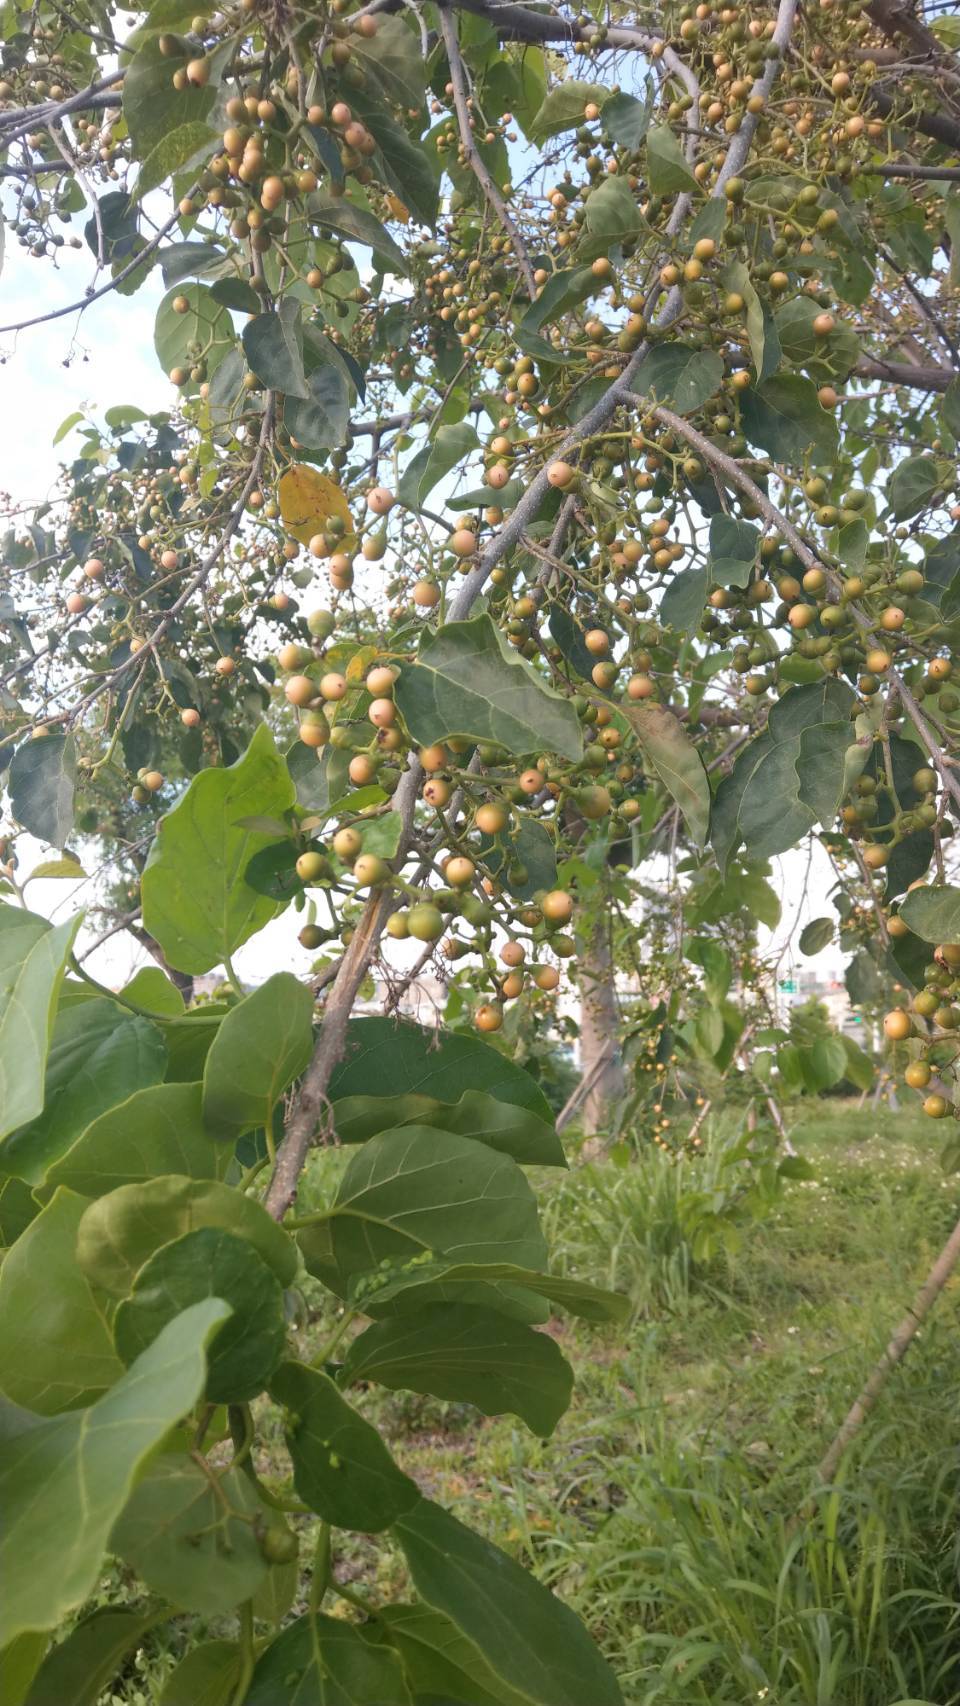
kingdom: Plantae
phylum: Tracheophyta
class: Magnoliopsida
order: Boraginales
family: Cordiaceae
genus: Cordia
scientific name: Cordia dichotoma
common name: Fragrant manjack
